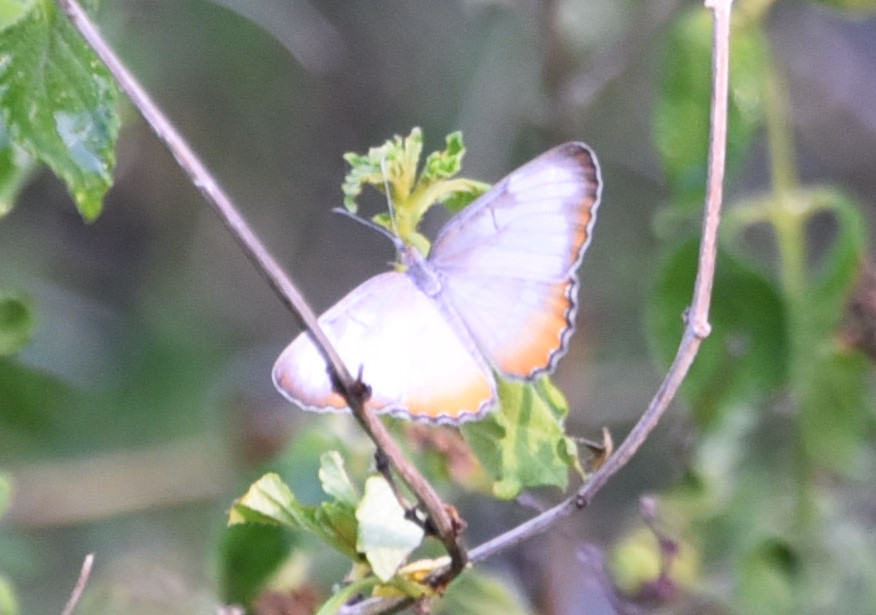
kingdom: Animalia
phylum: Arthropoda
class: Insecta
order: Lepidoptera
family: Nymphalidae
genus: Mestra
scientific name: Mestra amymone
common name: Common mestra
